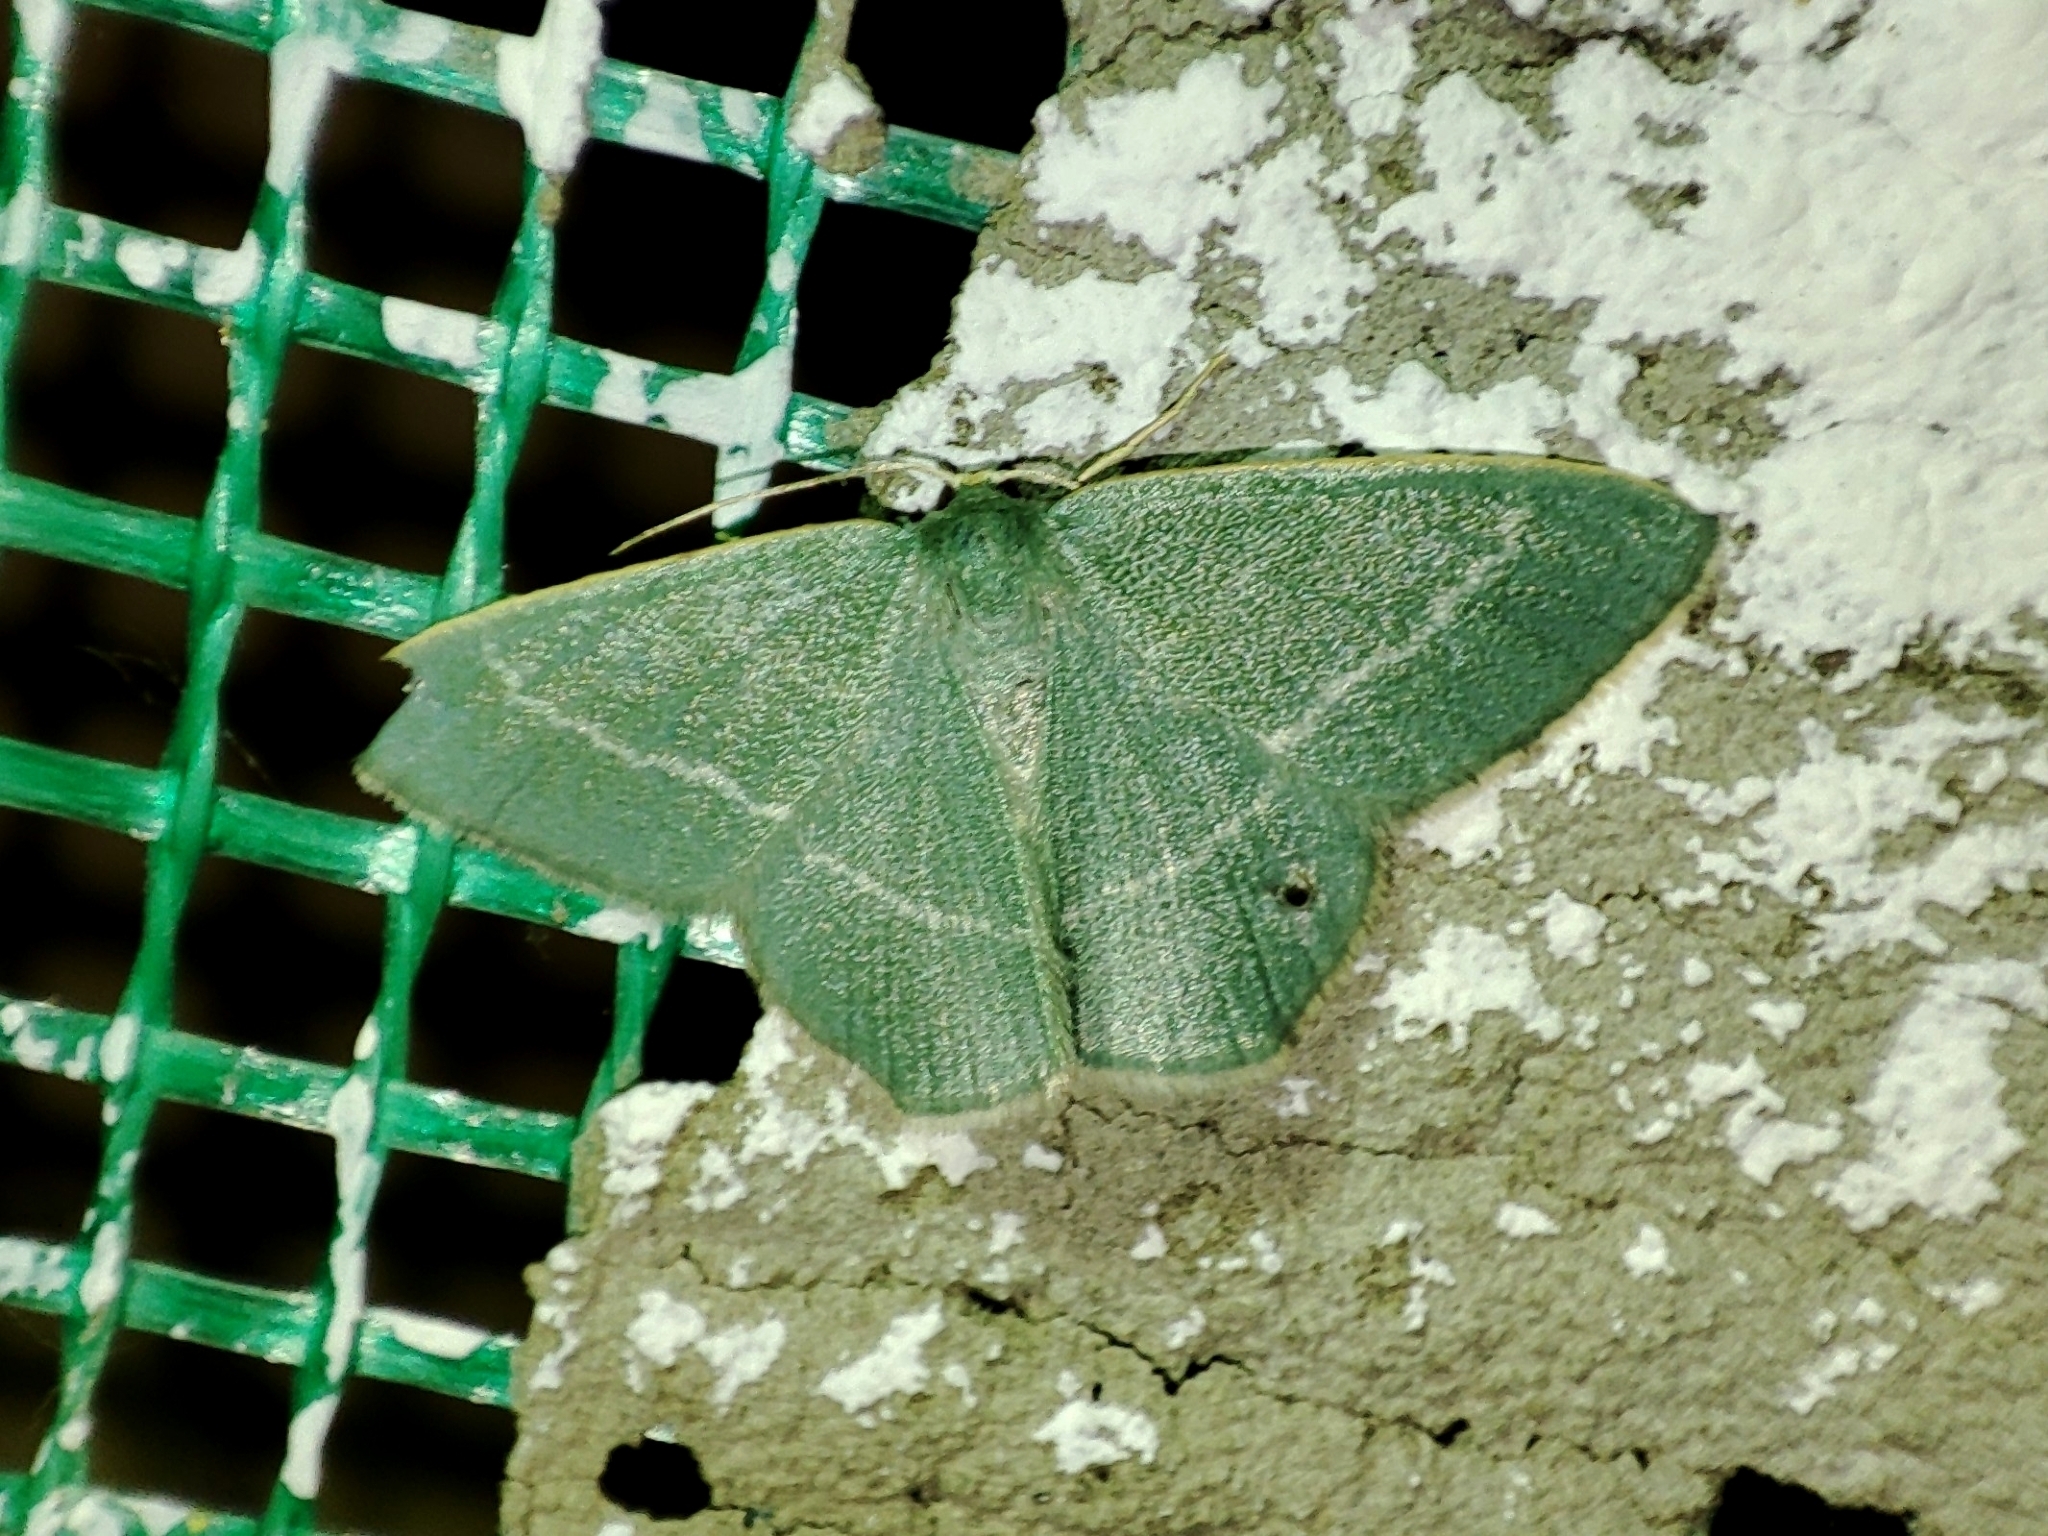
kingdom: Animalia
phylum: Arthropoda
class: Insecta
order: Lepidoptera
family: Geometridae
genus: Chlorissa
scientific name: Chlorissa viridata
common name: Small grass emerald
